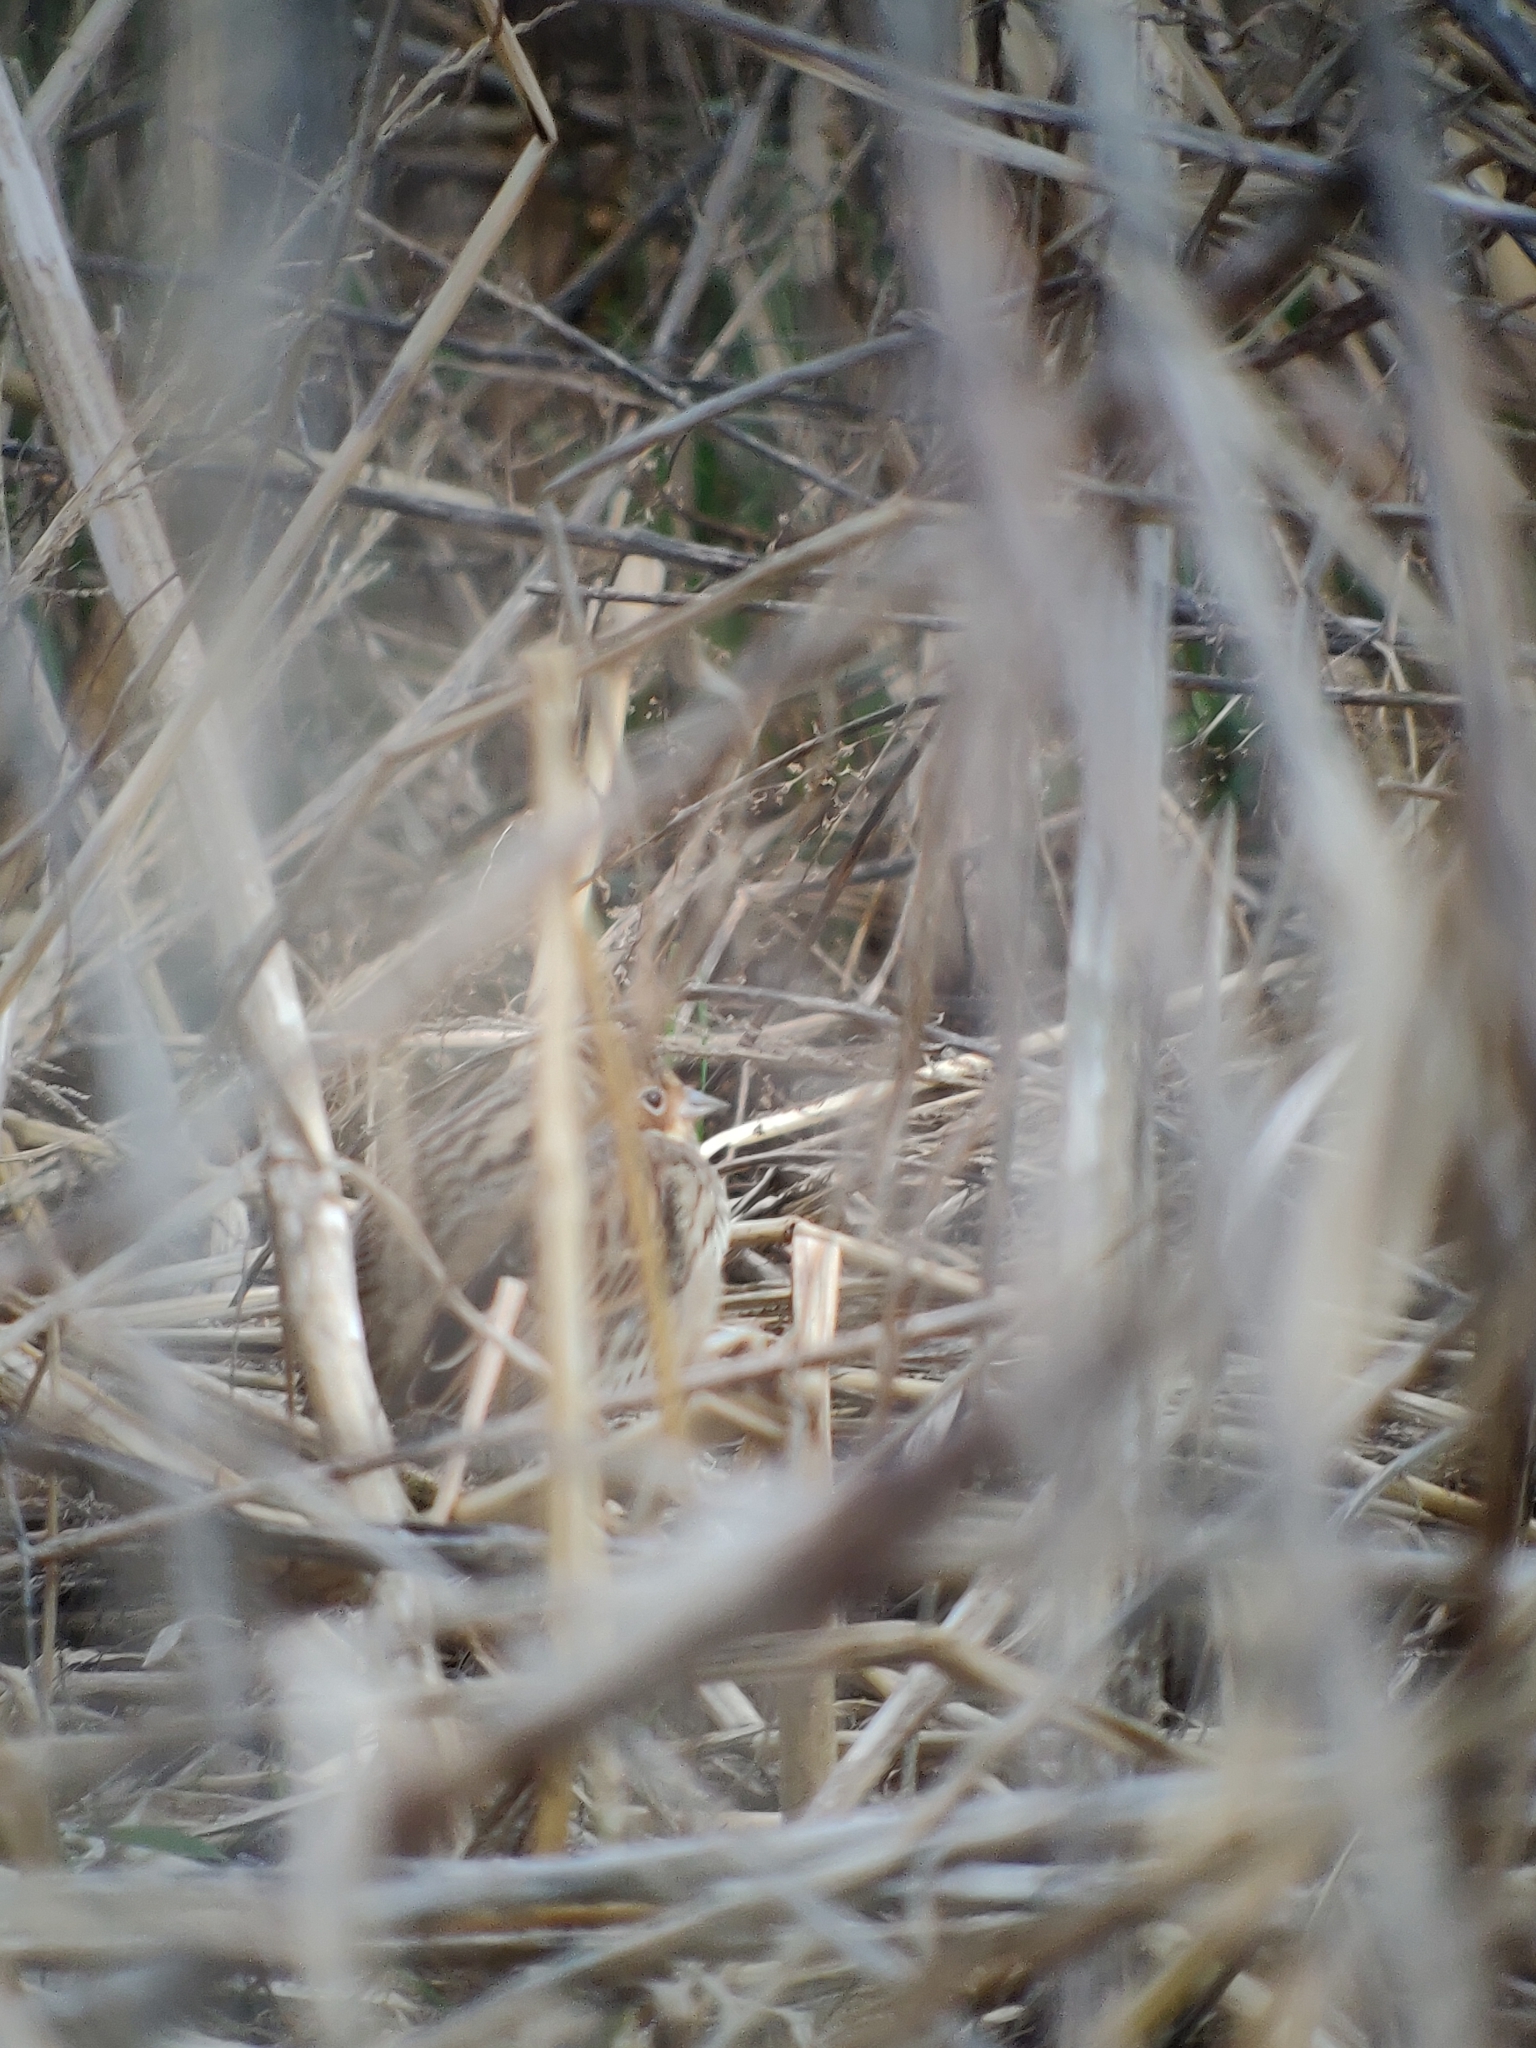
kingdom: Animalia
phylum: Chordata
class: Aves
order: Passeriformes
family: Emberizidae
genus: Emberiza
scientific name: Emberiza pusilla
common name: Little bunting
